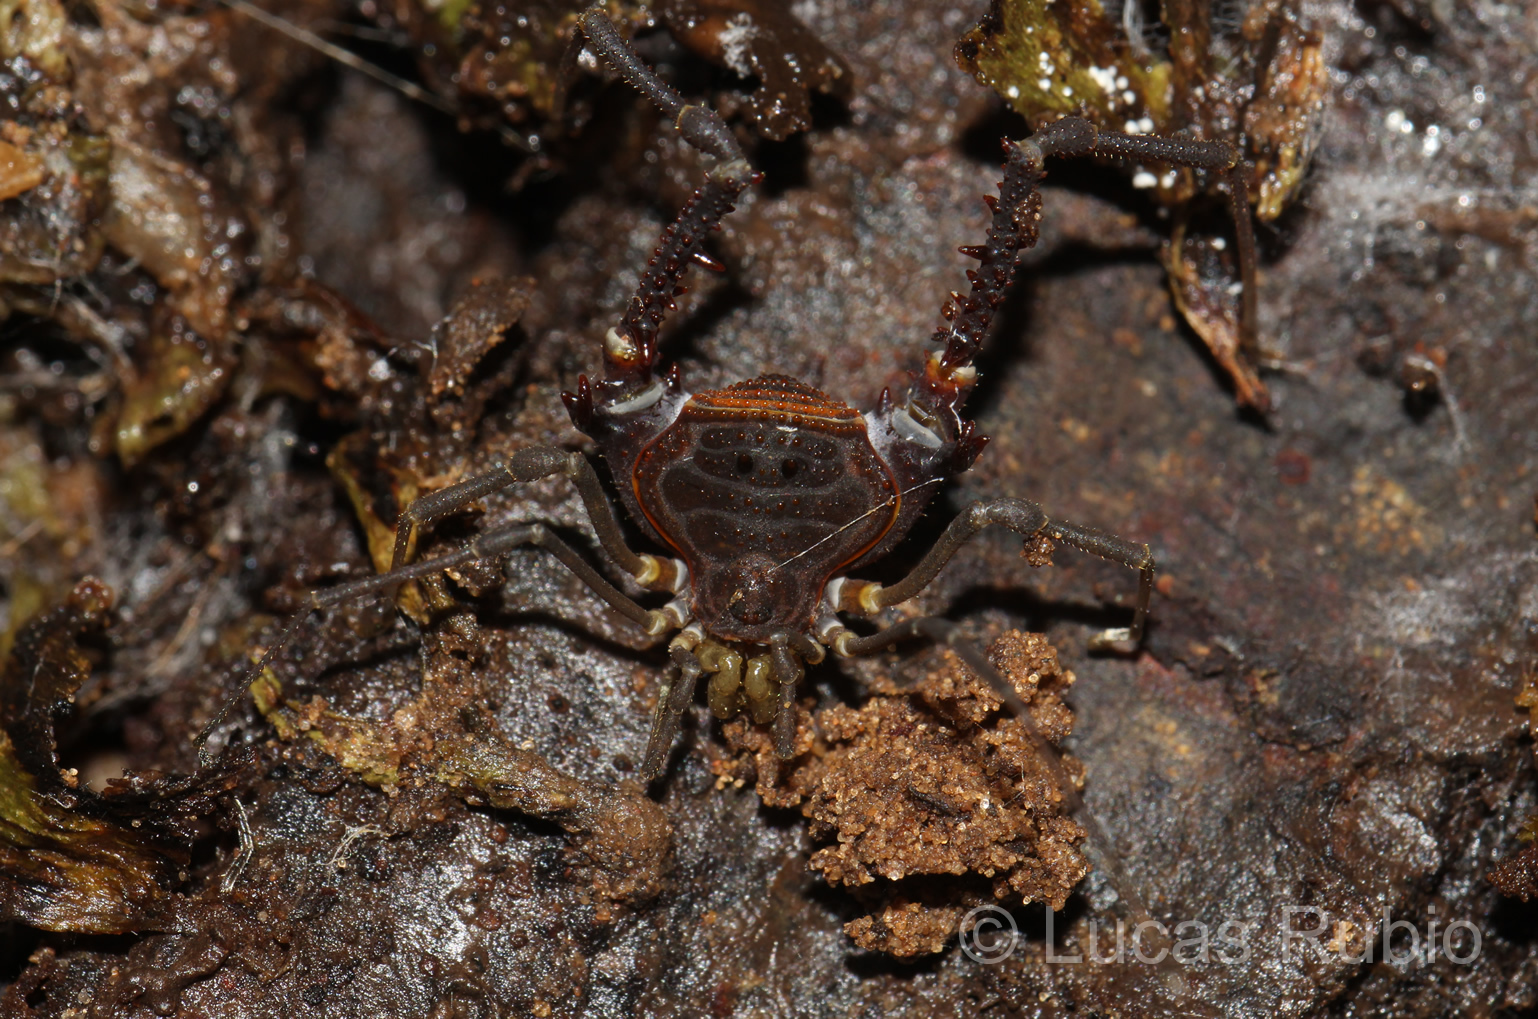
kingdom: Animalia
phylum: Arthropoda
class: Arachnida
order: Opiliones
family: Gonyleptidae
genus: Opisthoplatus
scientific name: Opisthoplatus prospicuus
